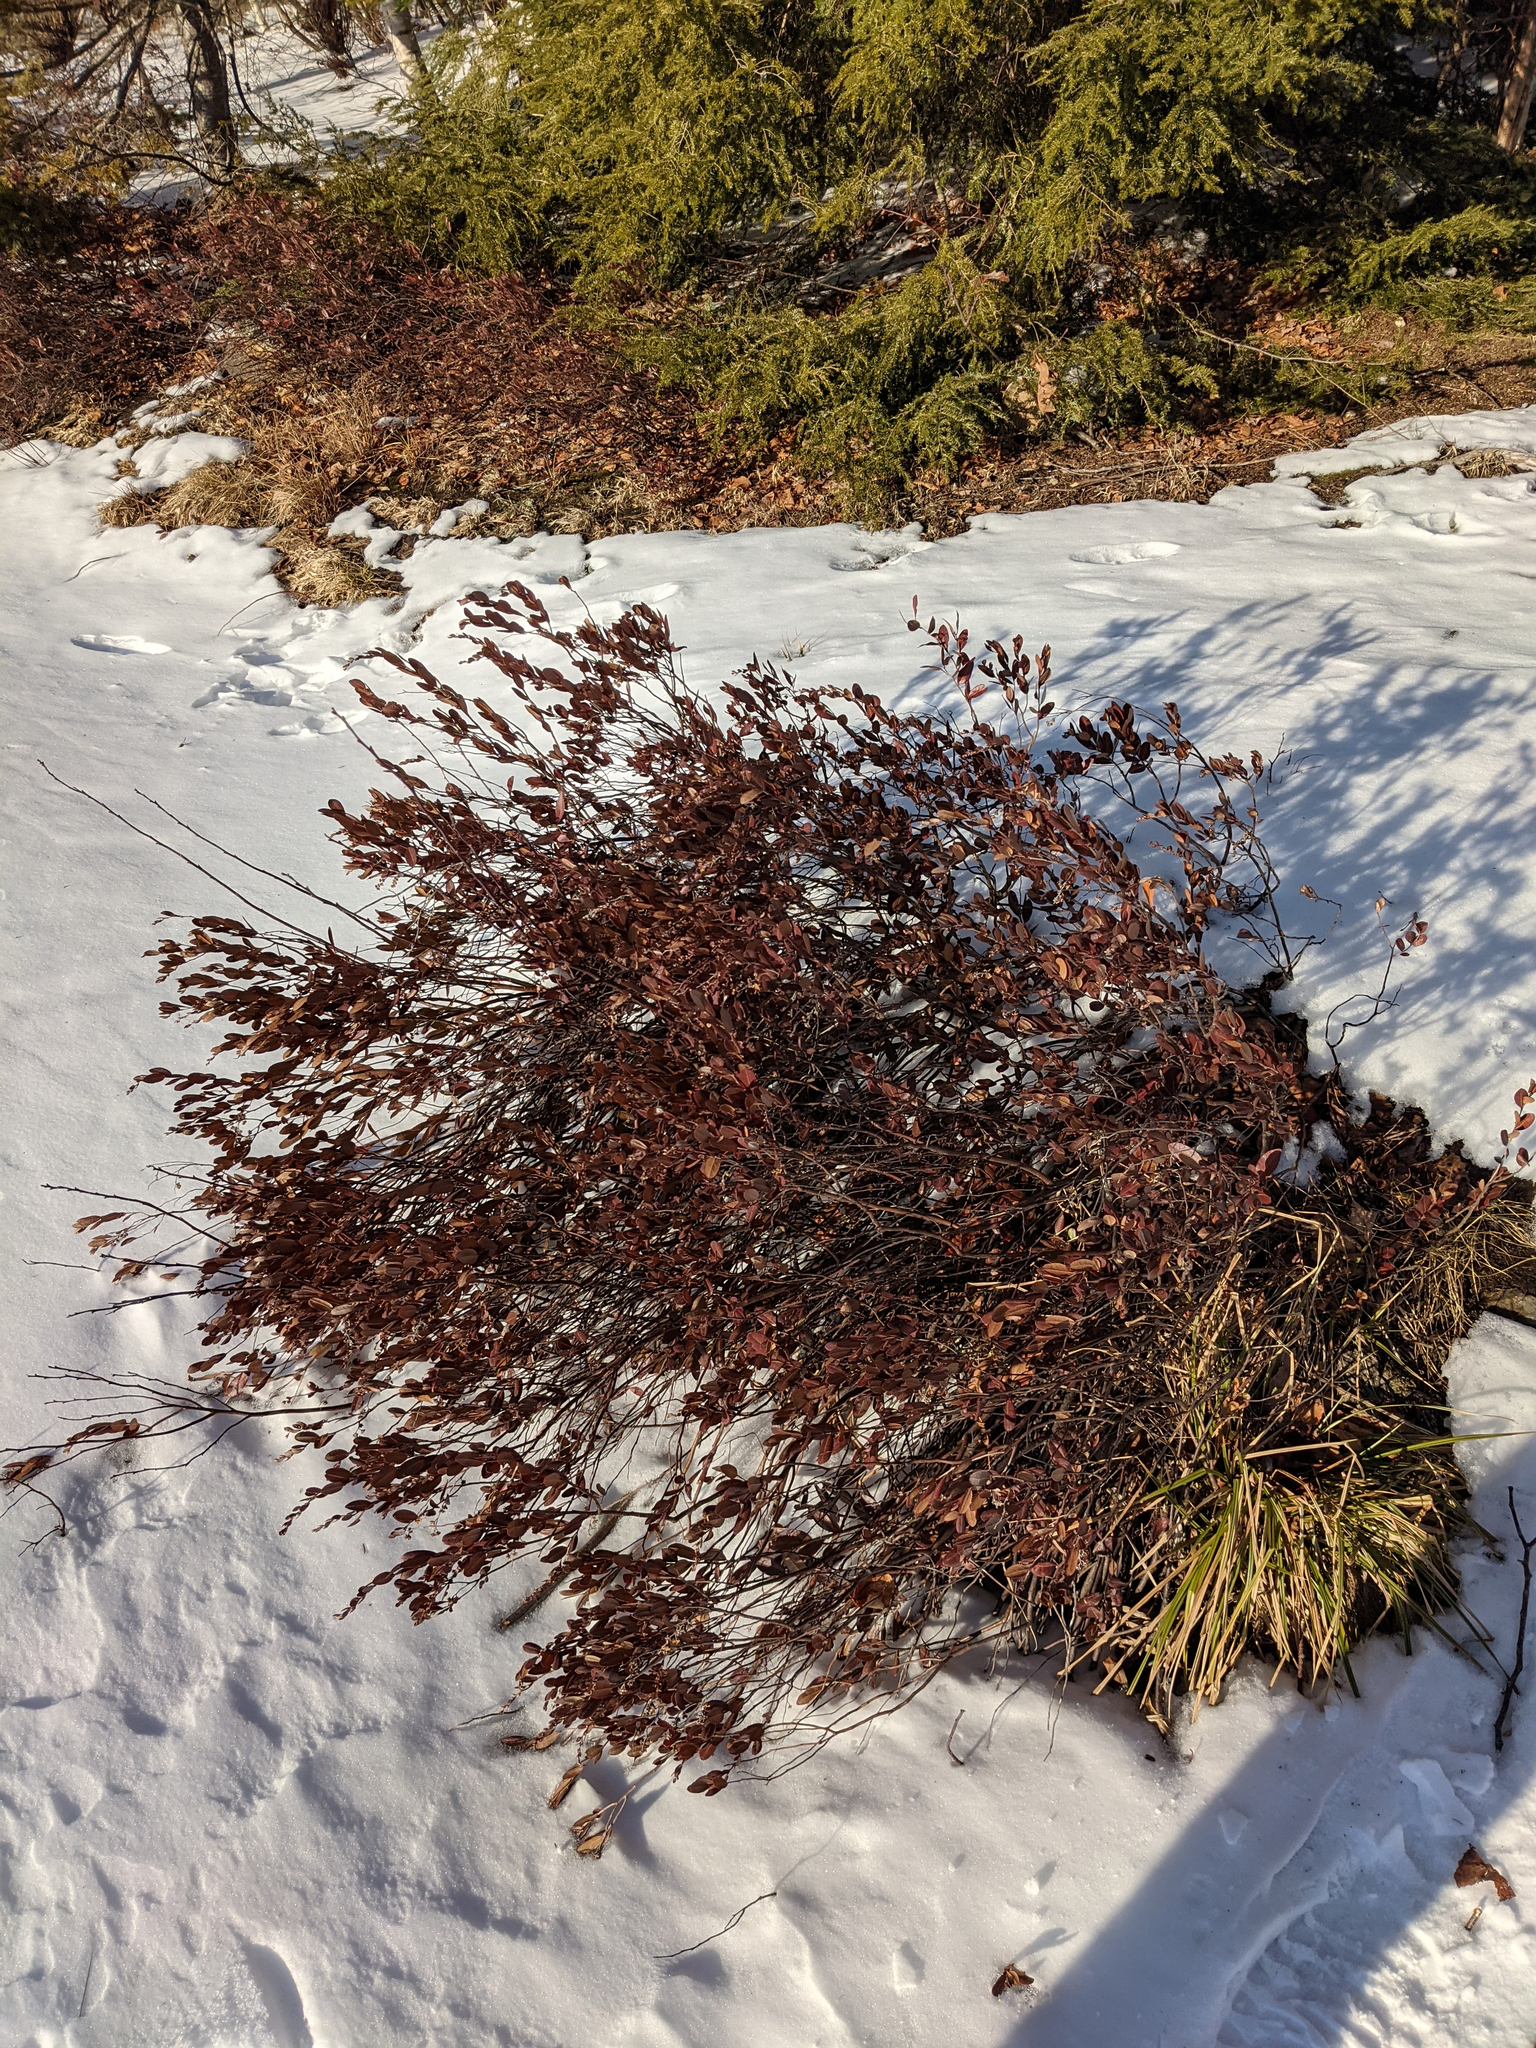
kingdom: Plantae
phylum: Tracheophyta
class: Magnoliopsida
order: Ericales
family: Ericaceae
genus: Chamaedaphne
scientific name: Chamaedaphne calyculata
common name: Leatherleaf
